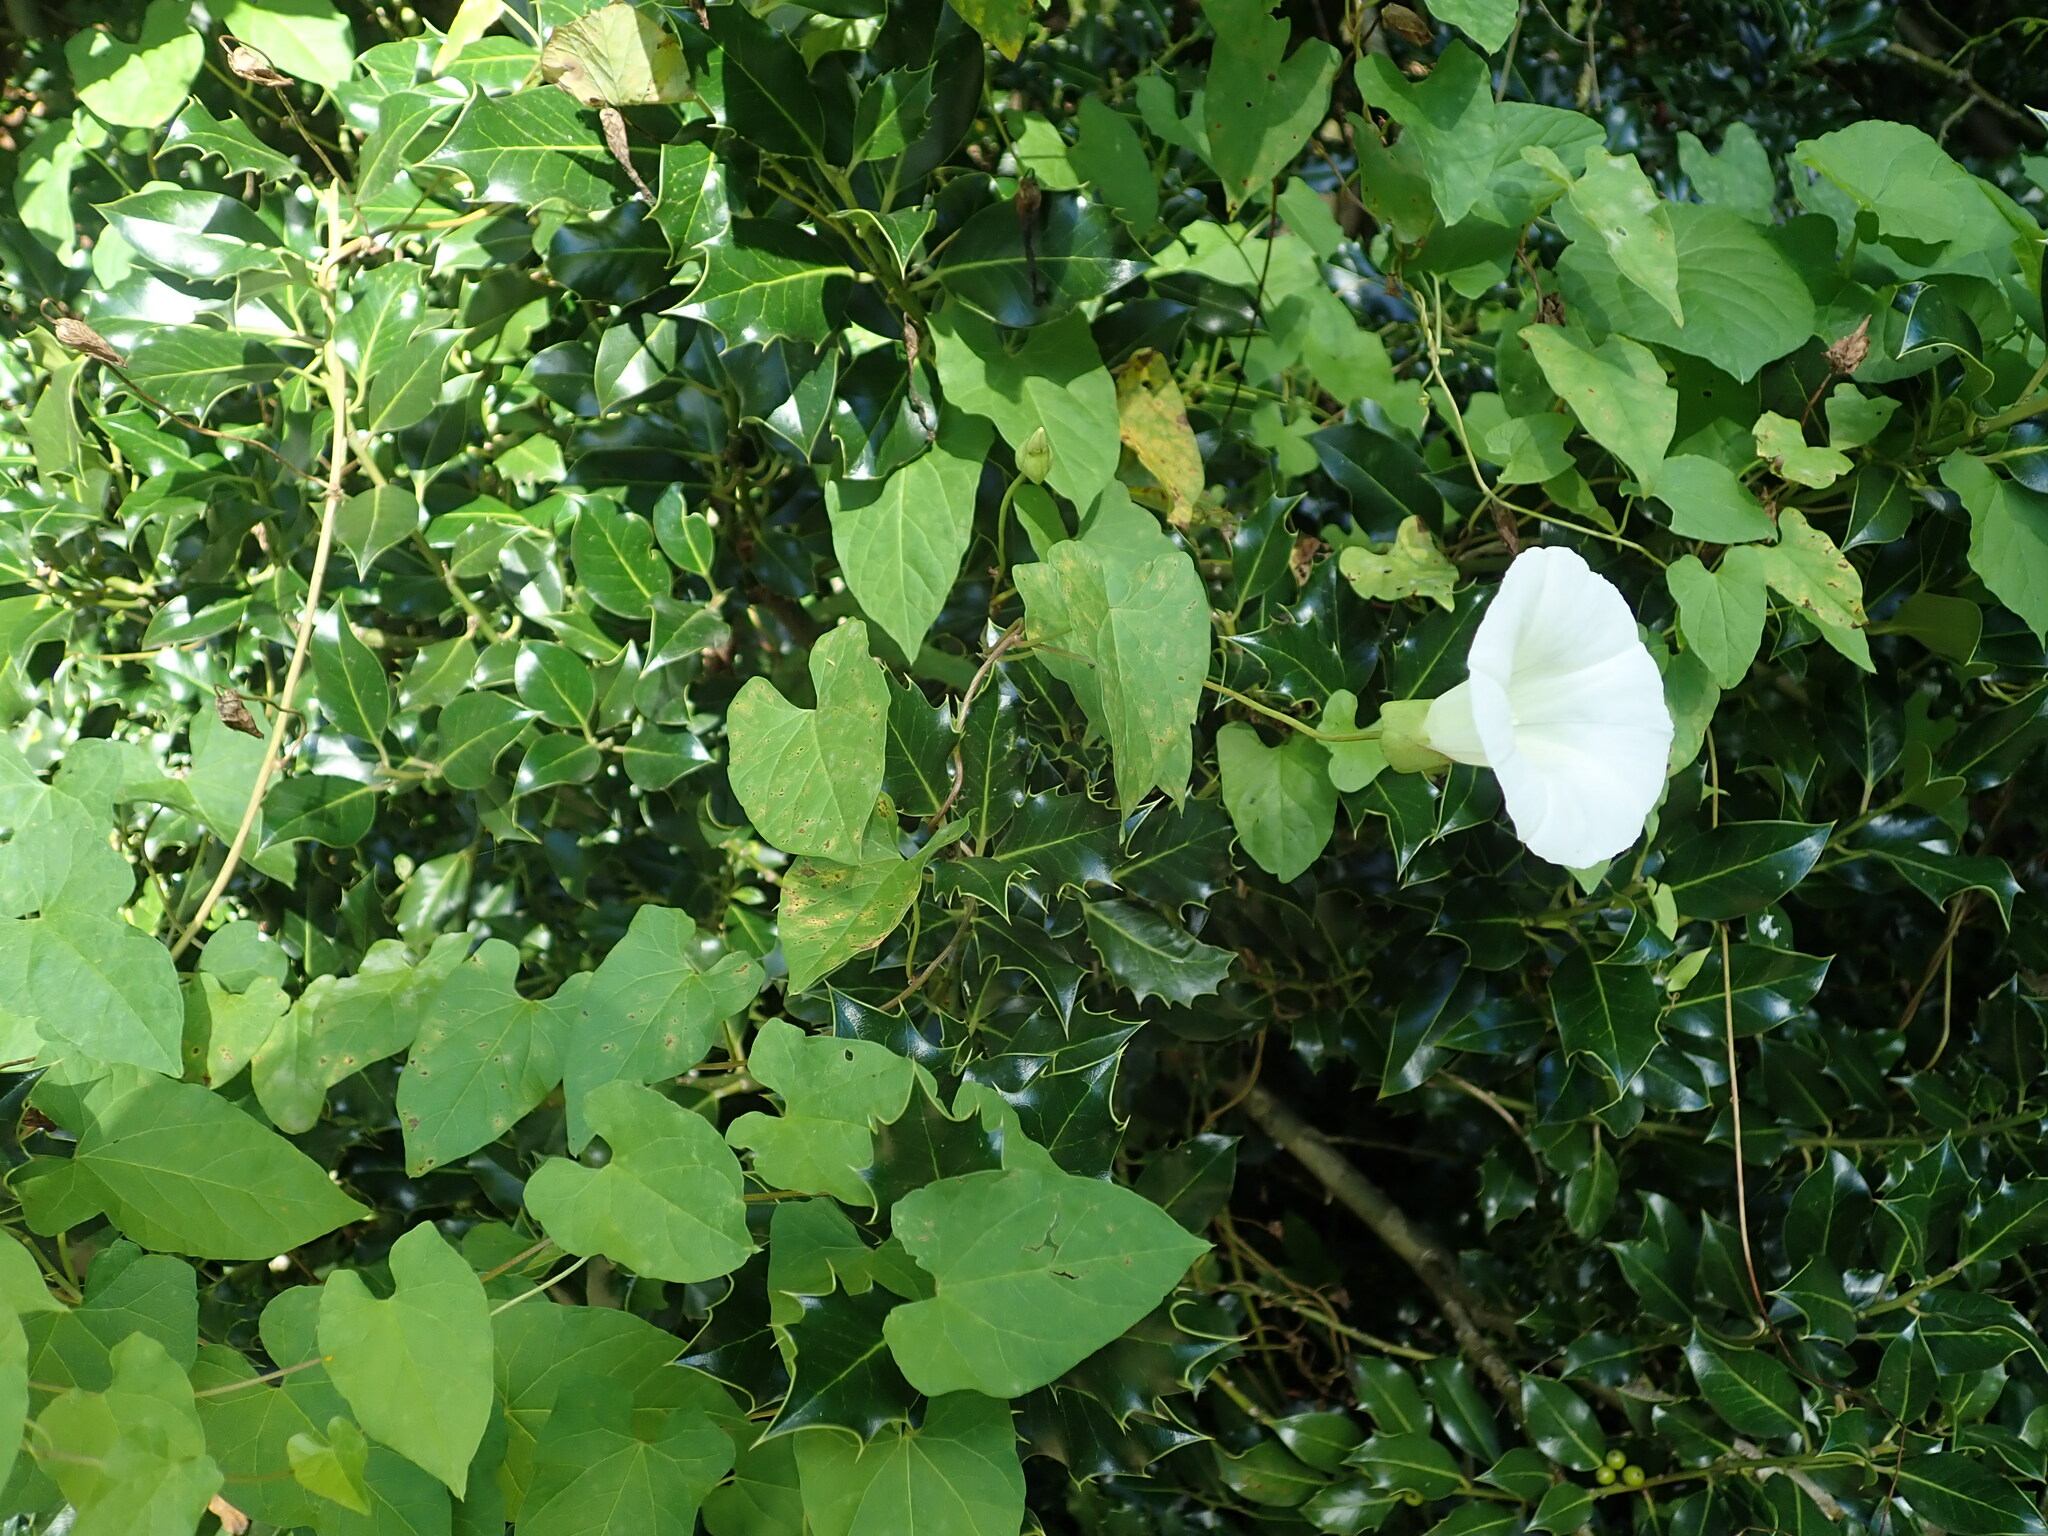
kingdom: Plantae
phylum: Tracheophyta
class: Magnoliopsida
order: Solanales
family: Convolvulaceae
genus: Calystegia
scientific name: Calystegia silvatica
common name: Large bindweed
